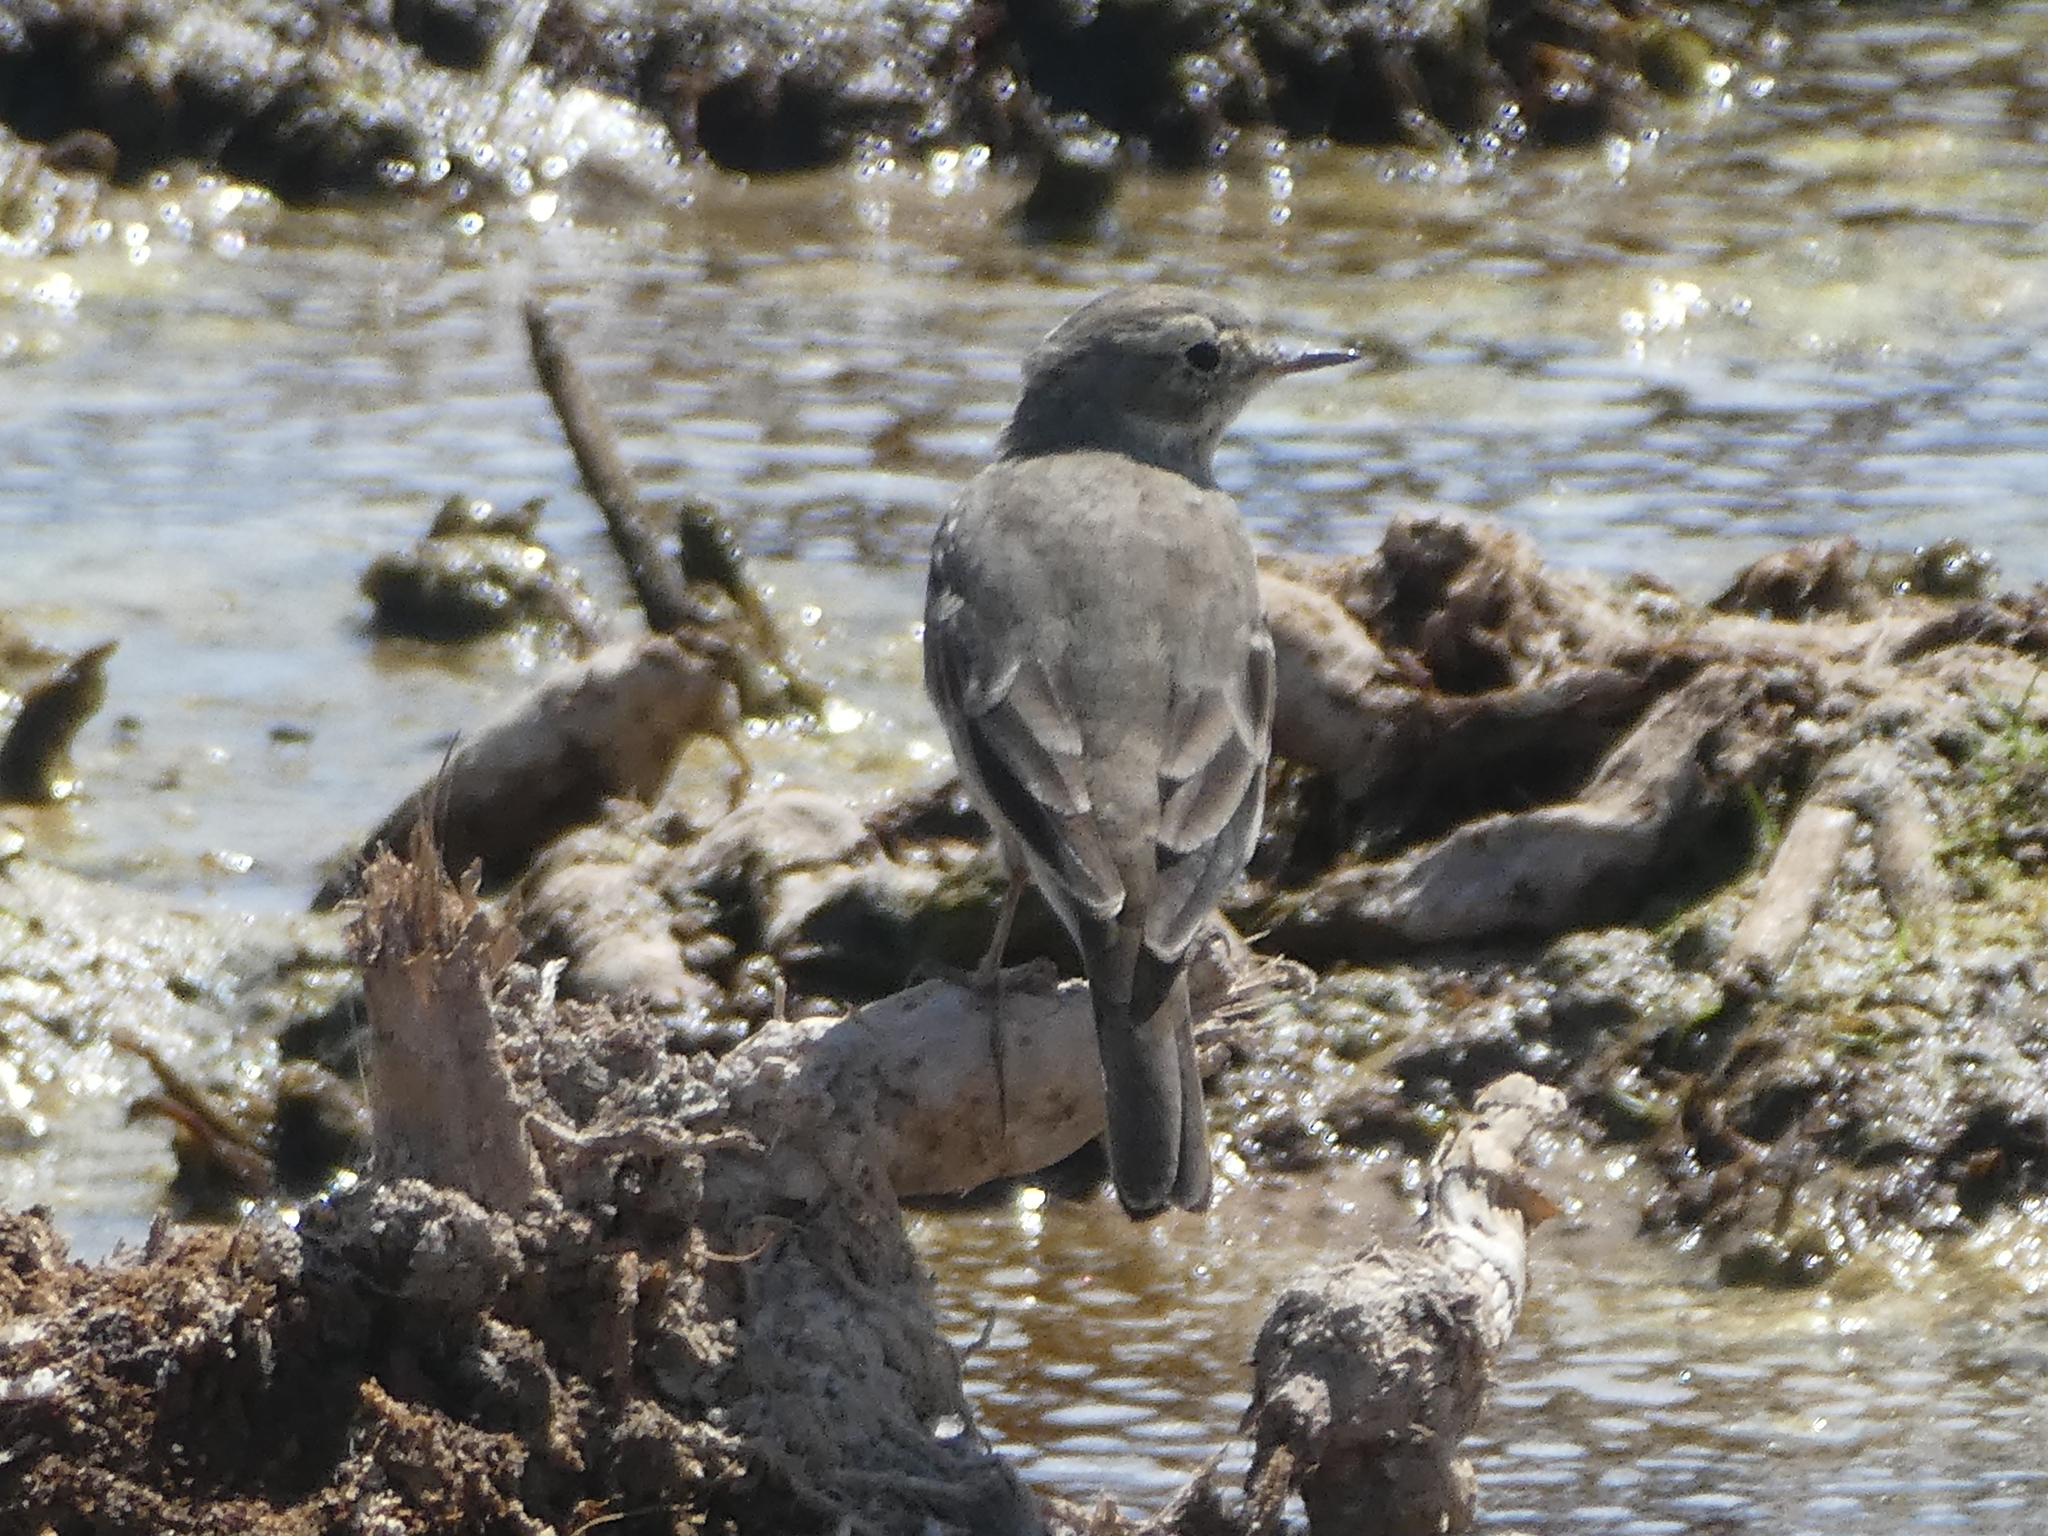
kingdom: Animalia
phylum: Chordata
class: Aves
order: Passeriformes
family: Motacillidae
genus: Anthus
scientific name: Anthus rubescens
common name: Buff-bellied pipit
